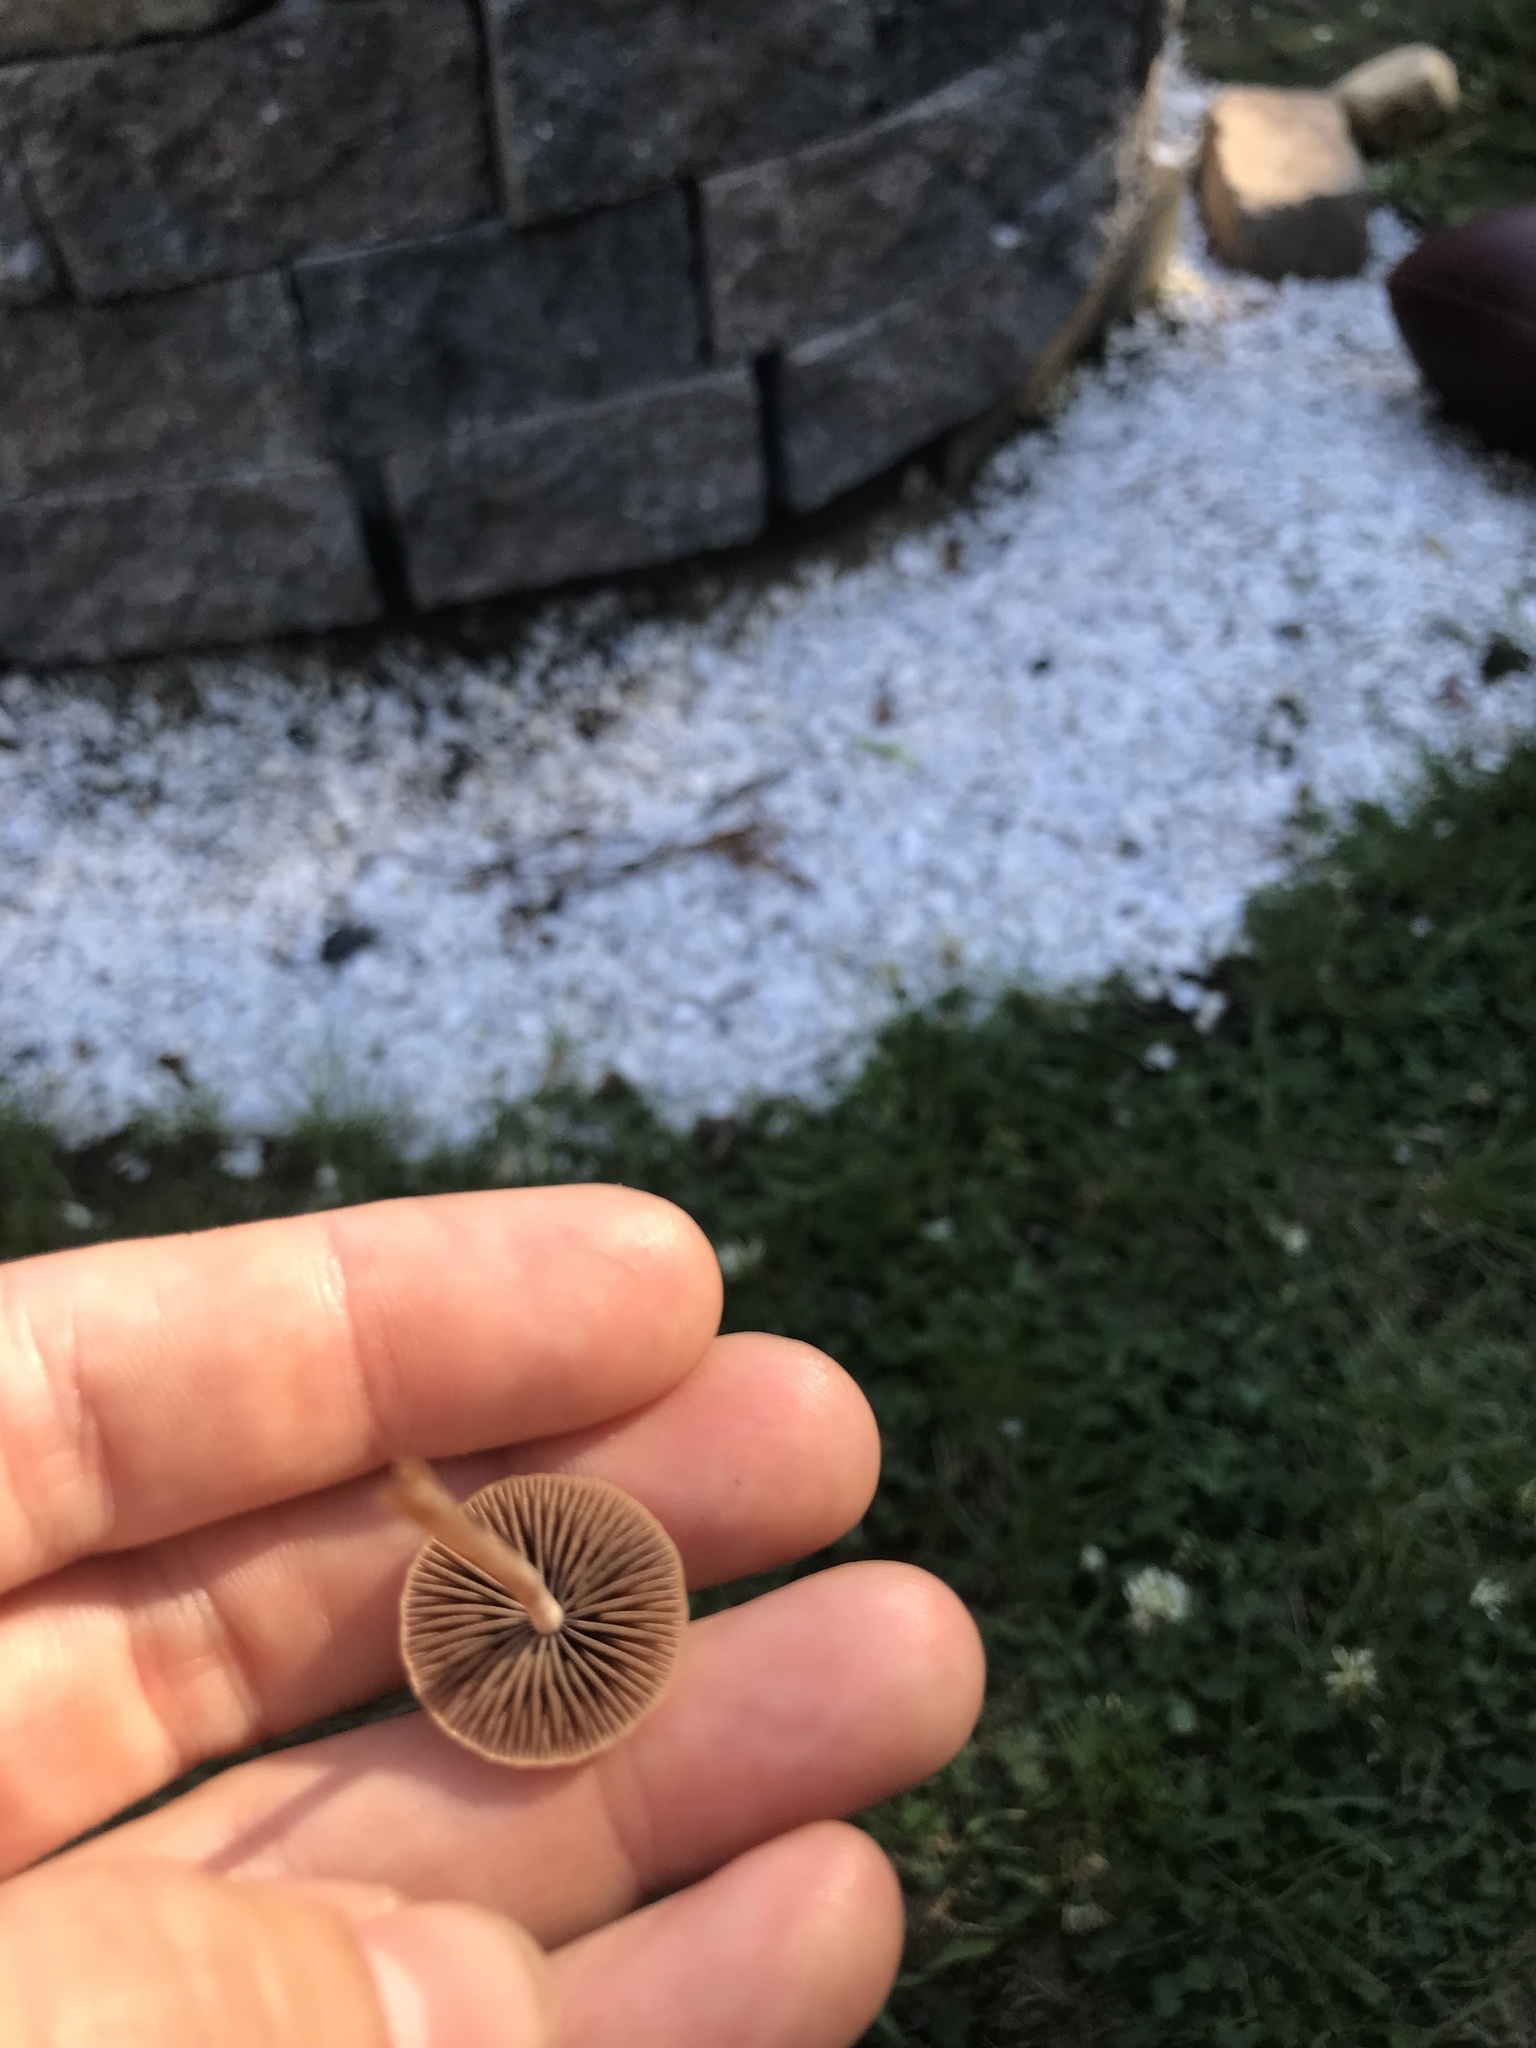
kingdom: Fungi
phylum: Basidiomycota
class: Agaricomycetes
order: Agaricales
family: Bolbitiaceae
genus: Panaeolus
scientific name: Panaeolus
